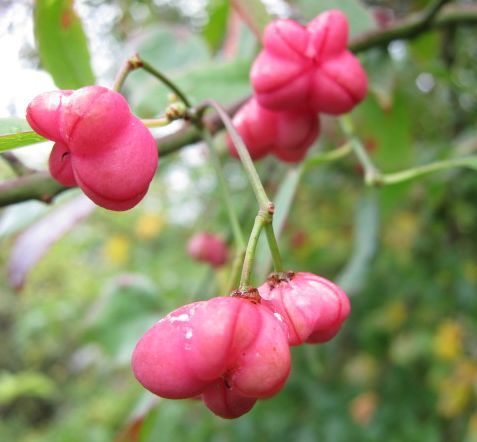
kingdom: Plantae
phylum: Tracheophyta
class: Magnoliopsida
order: Celastrales
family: Celastraceae
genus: Euonymus
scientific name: Euonymus europaeus
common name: Spindle
